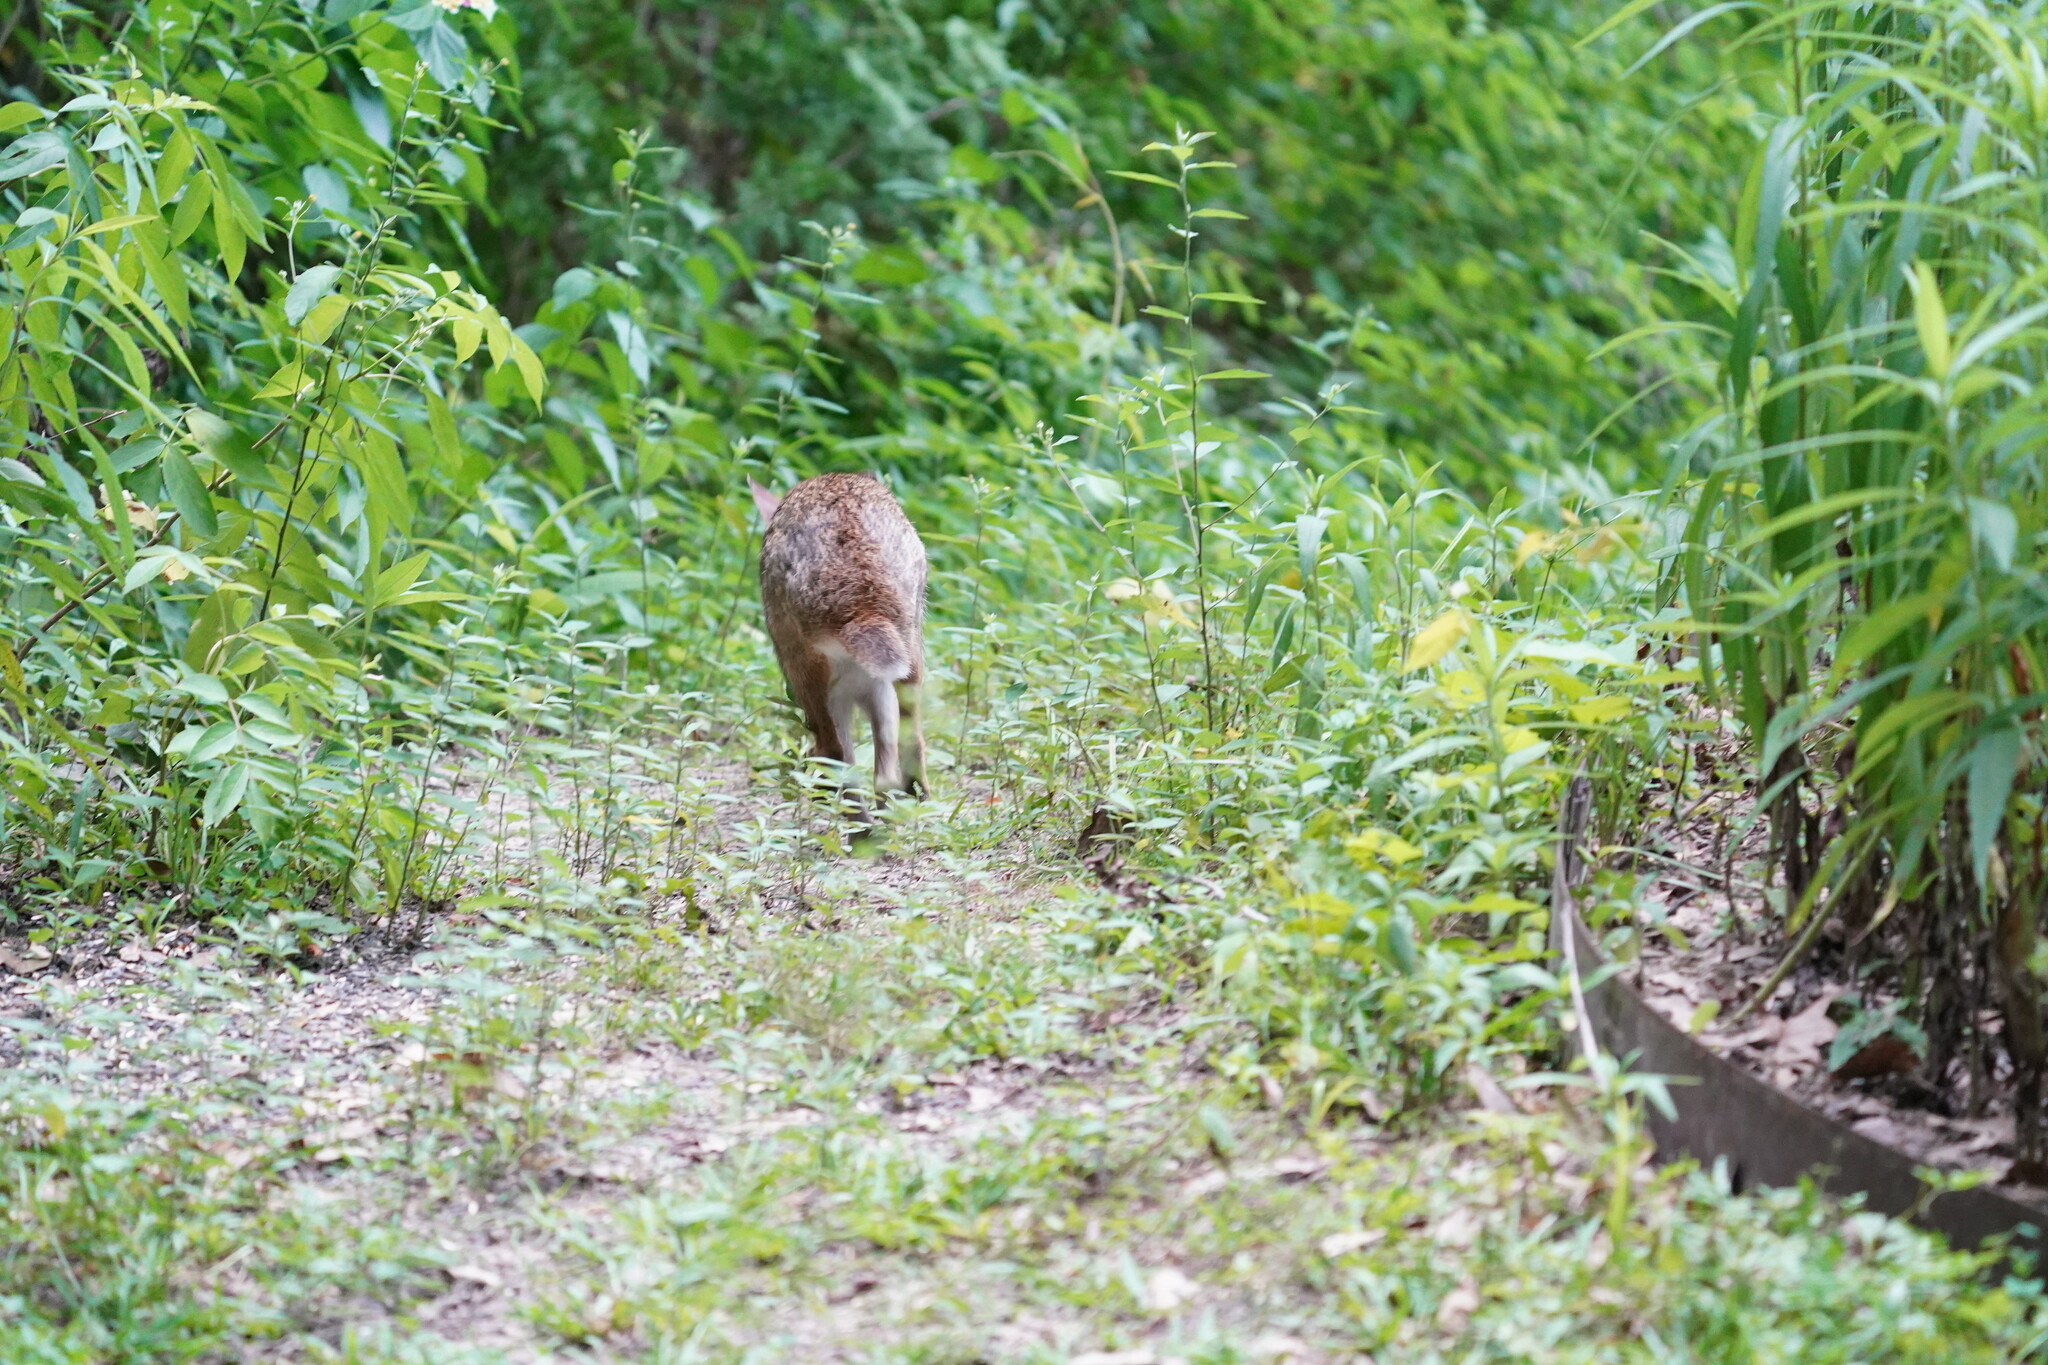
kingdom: Animalia
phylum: Chordata
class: Mammalia
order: Lagomorpha
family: Leporidae
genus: Sylvilagus
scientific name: Sylvilagus aquaticus
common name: Swamp rabbit
